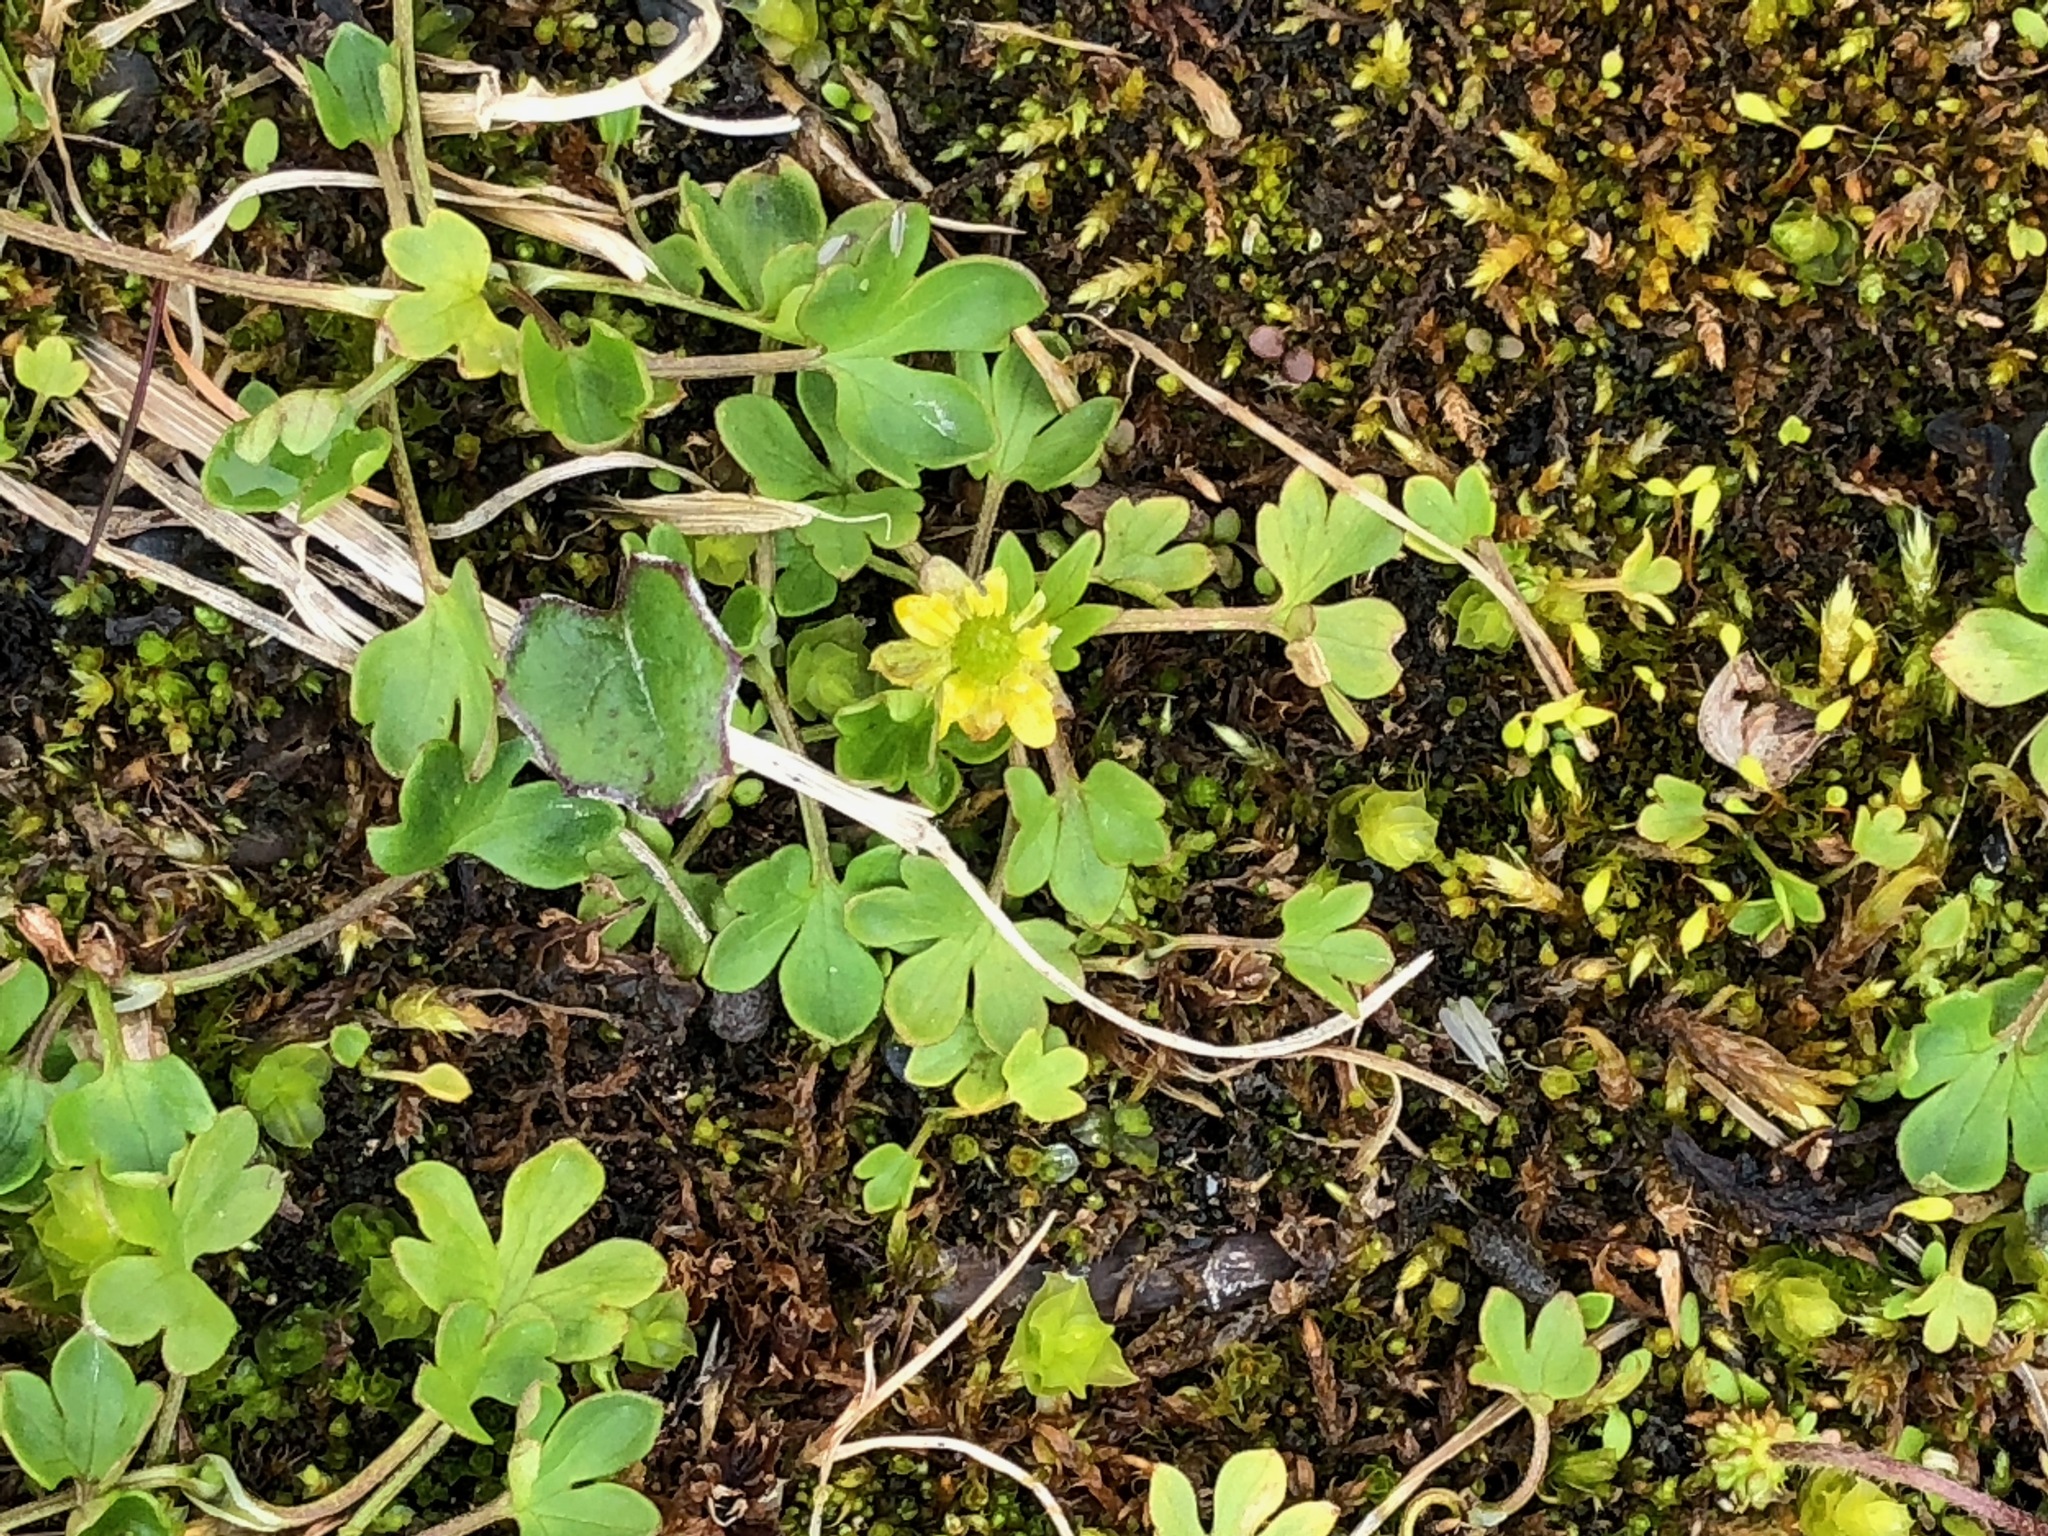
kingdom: Plantae
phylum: Tracheophyta
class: Magnoliopsida
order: Ranunculales
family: Ranunculaceae
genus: Ranunculus
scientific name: Ranunculus pygmaeus
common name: Dwarf buttercup
